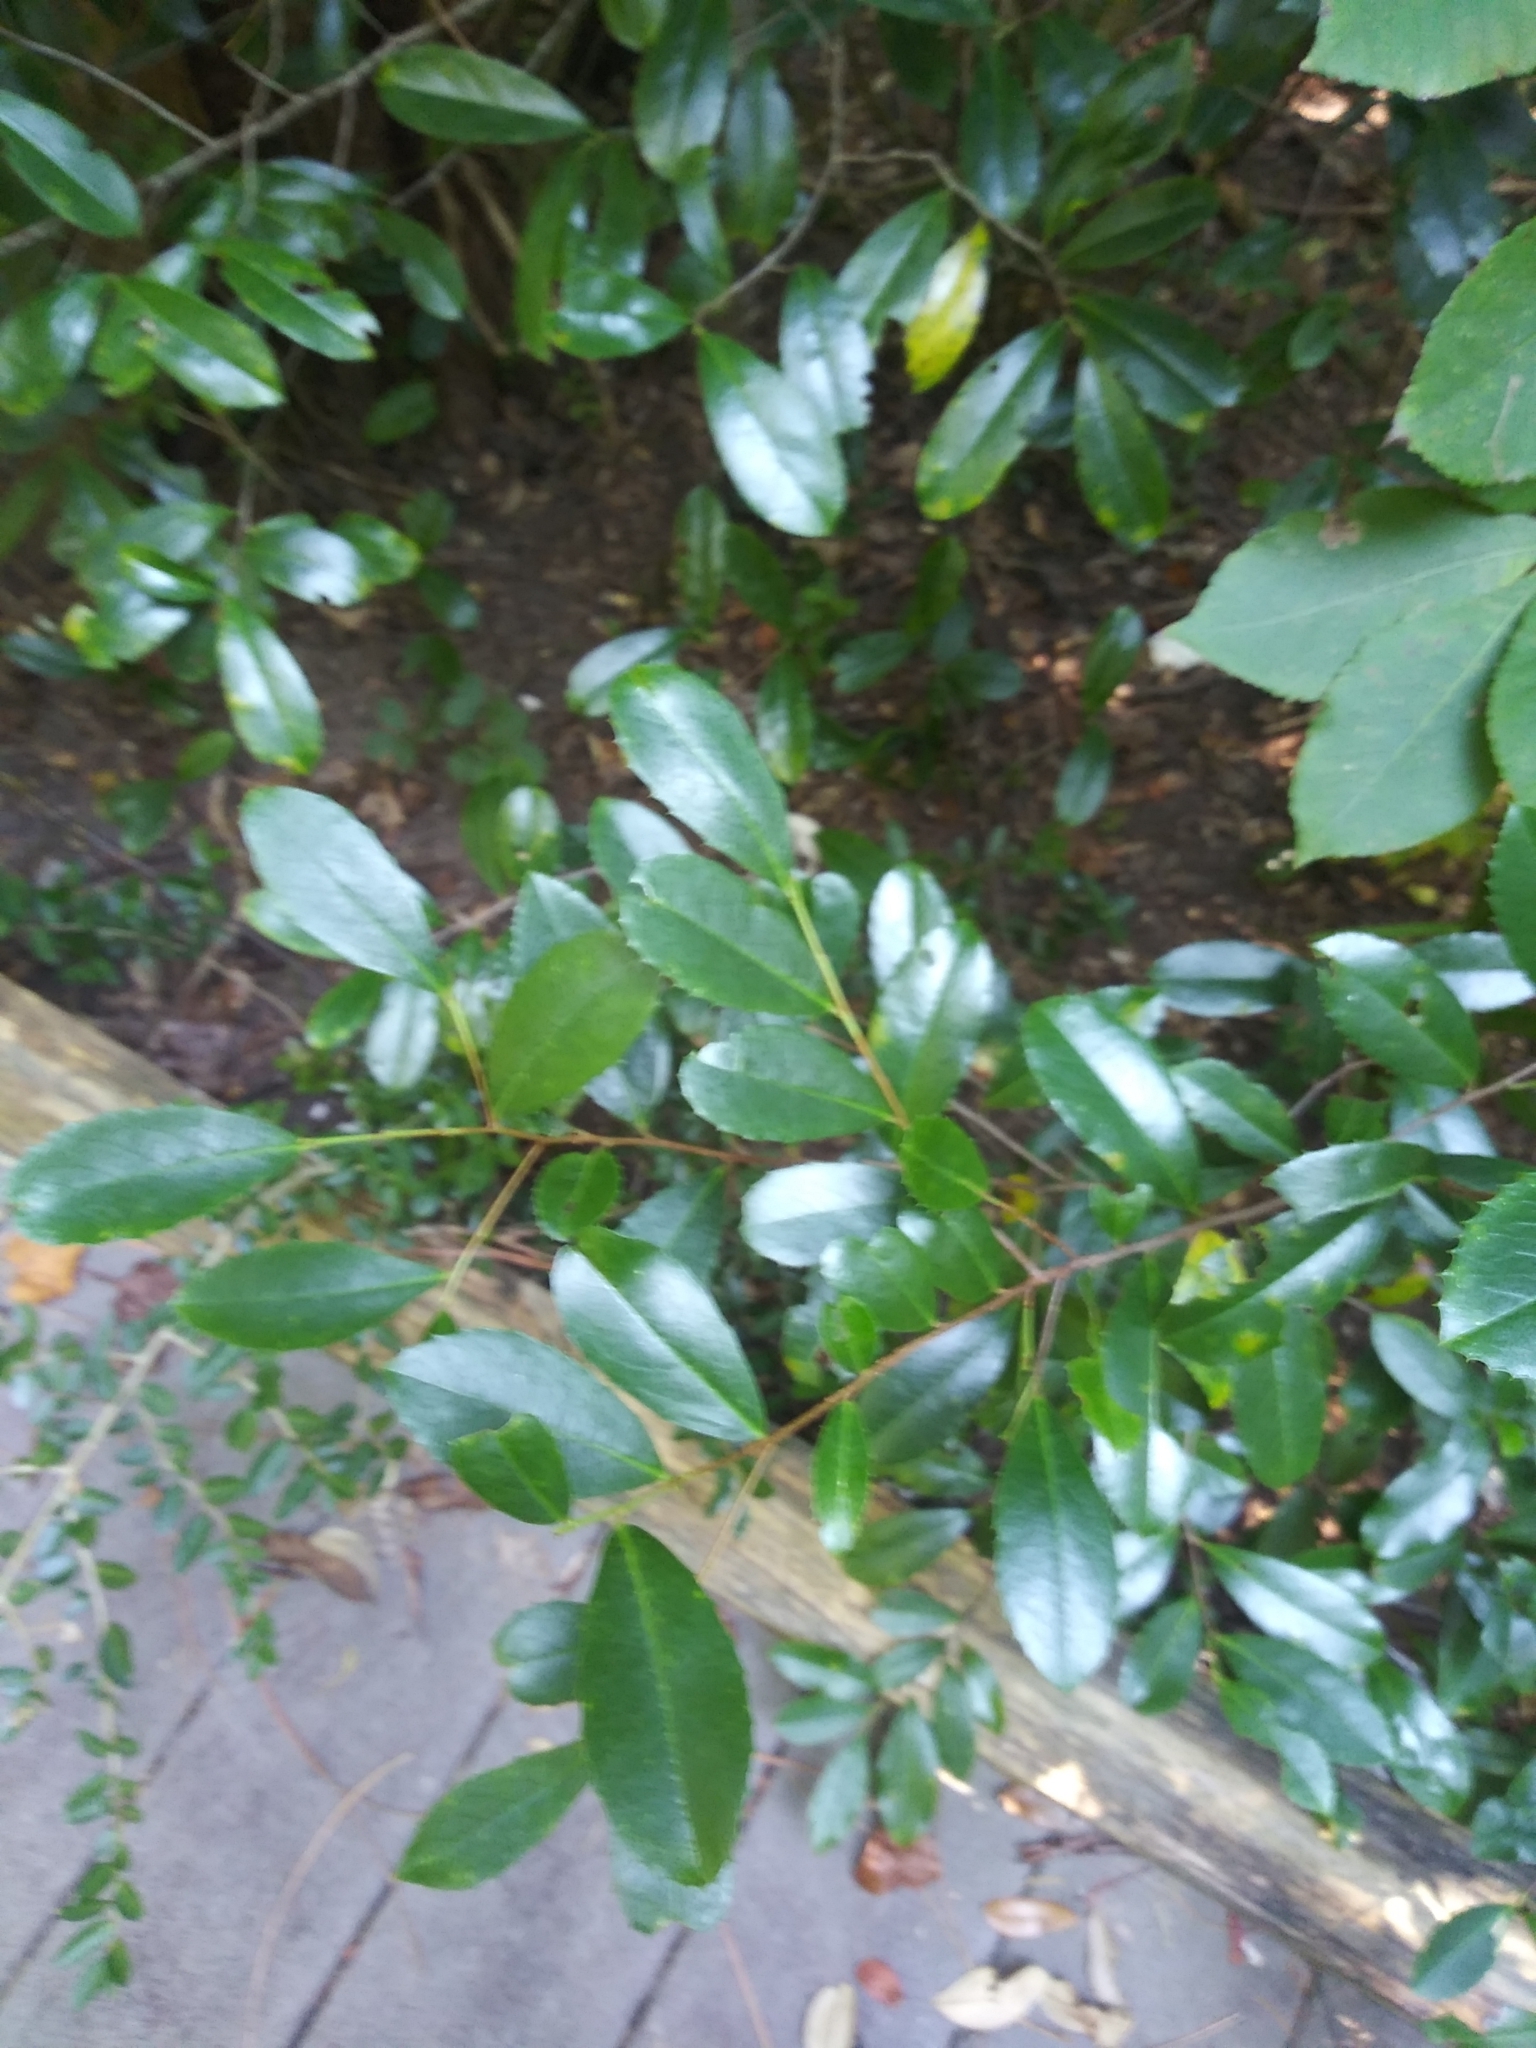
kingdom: Plantae
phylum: Tracheophyta
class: Magnoliopsida
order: Rosales
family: Rosaceae
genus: Prunus
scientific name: Prunus caroliniana
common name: Carolina laurel cherry
